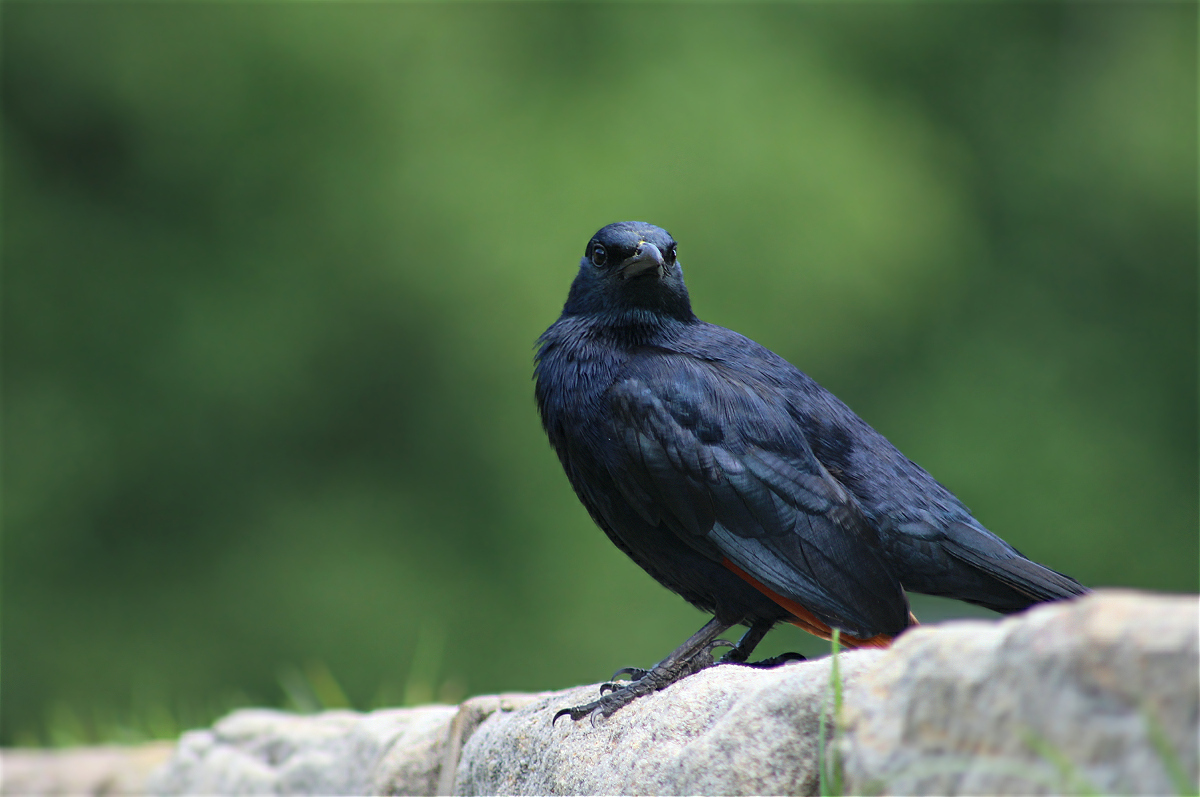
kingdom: Animalia
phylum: Chordata
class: Aves
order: Passeriformes
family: Sturnidae
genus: Onychognathus
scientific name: Onychognathus morio
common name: Red-winged starling
